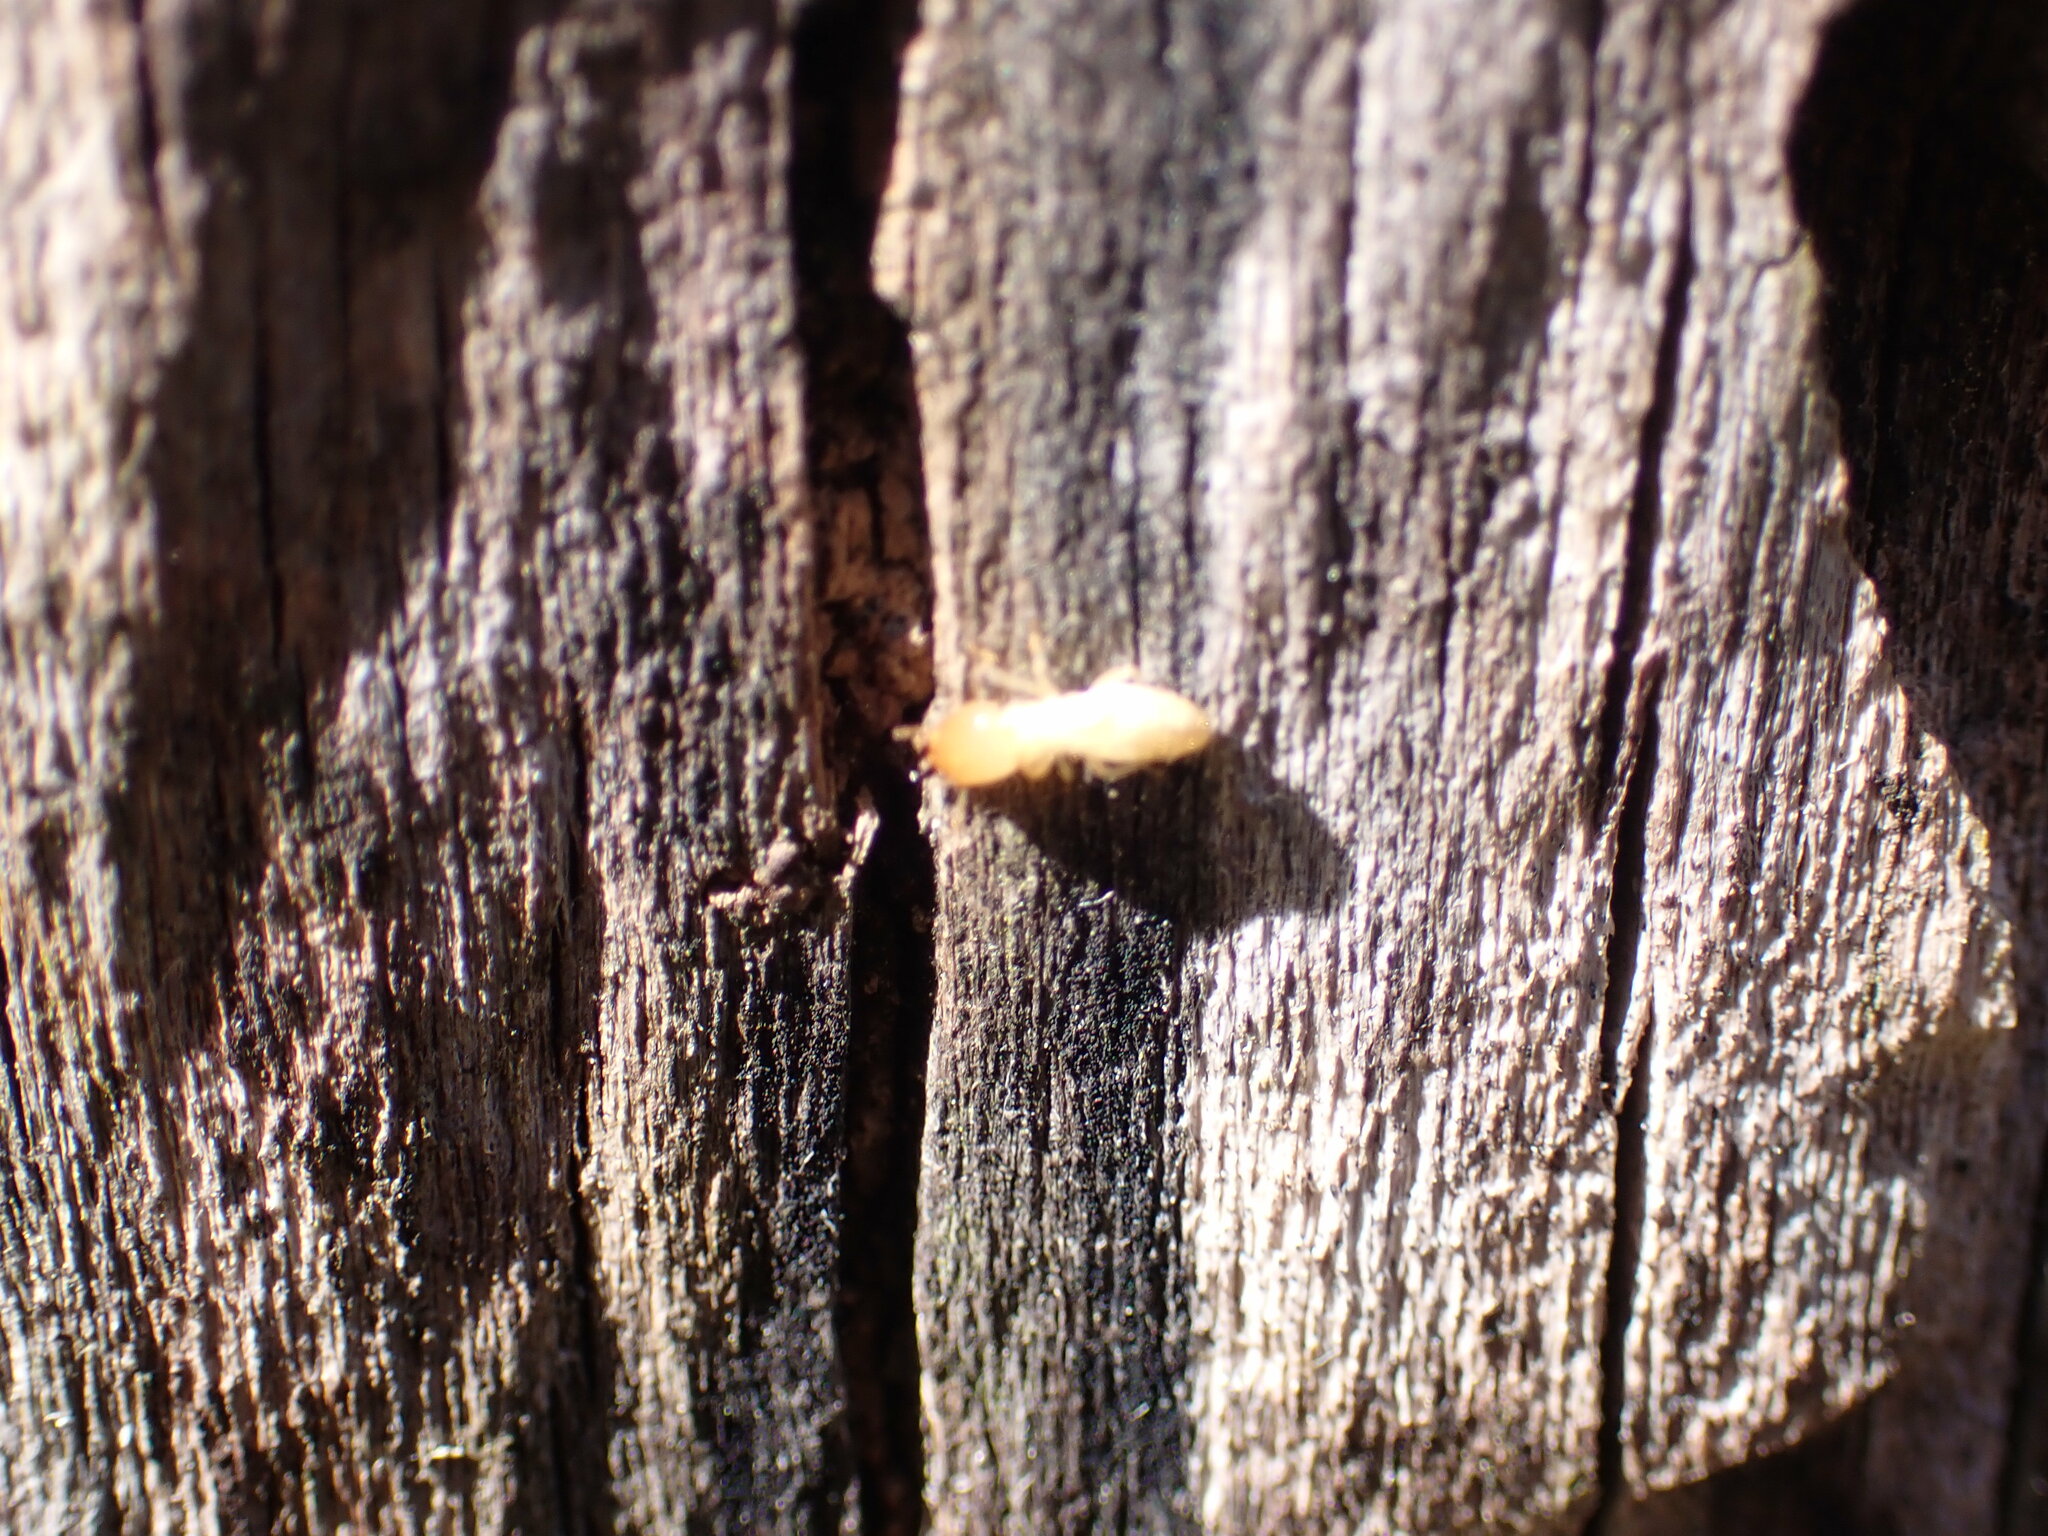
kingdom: Animalia
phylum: Arthropoda
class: Insecta
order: Blattodea
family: Rhinotermitidae
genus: Reticulitermes
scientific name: Reticulitermes flavipes
